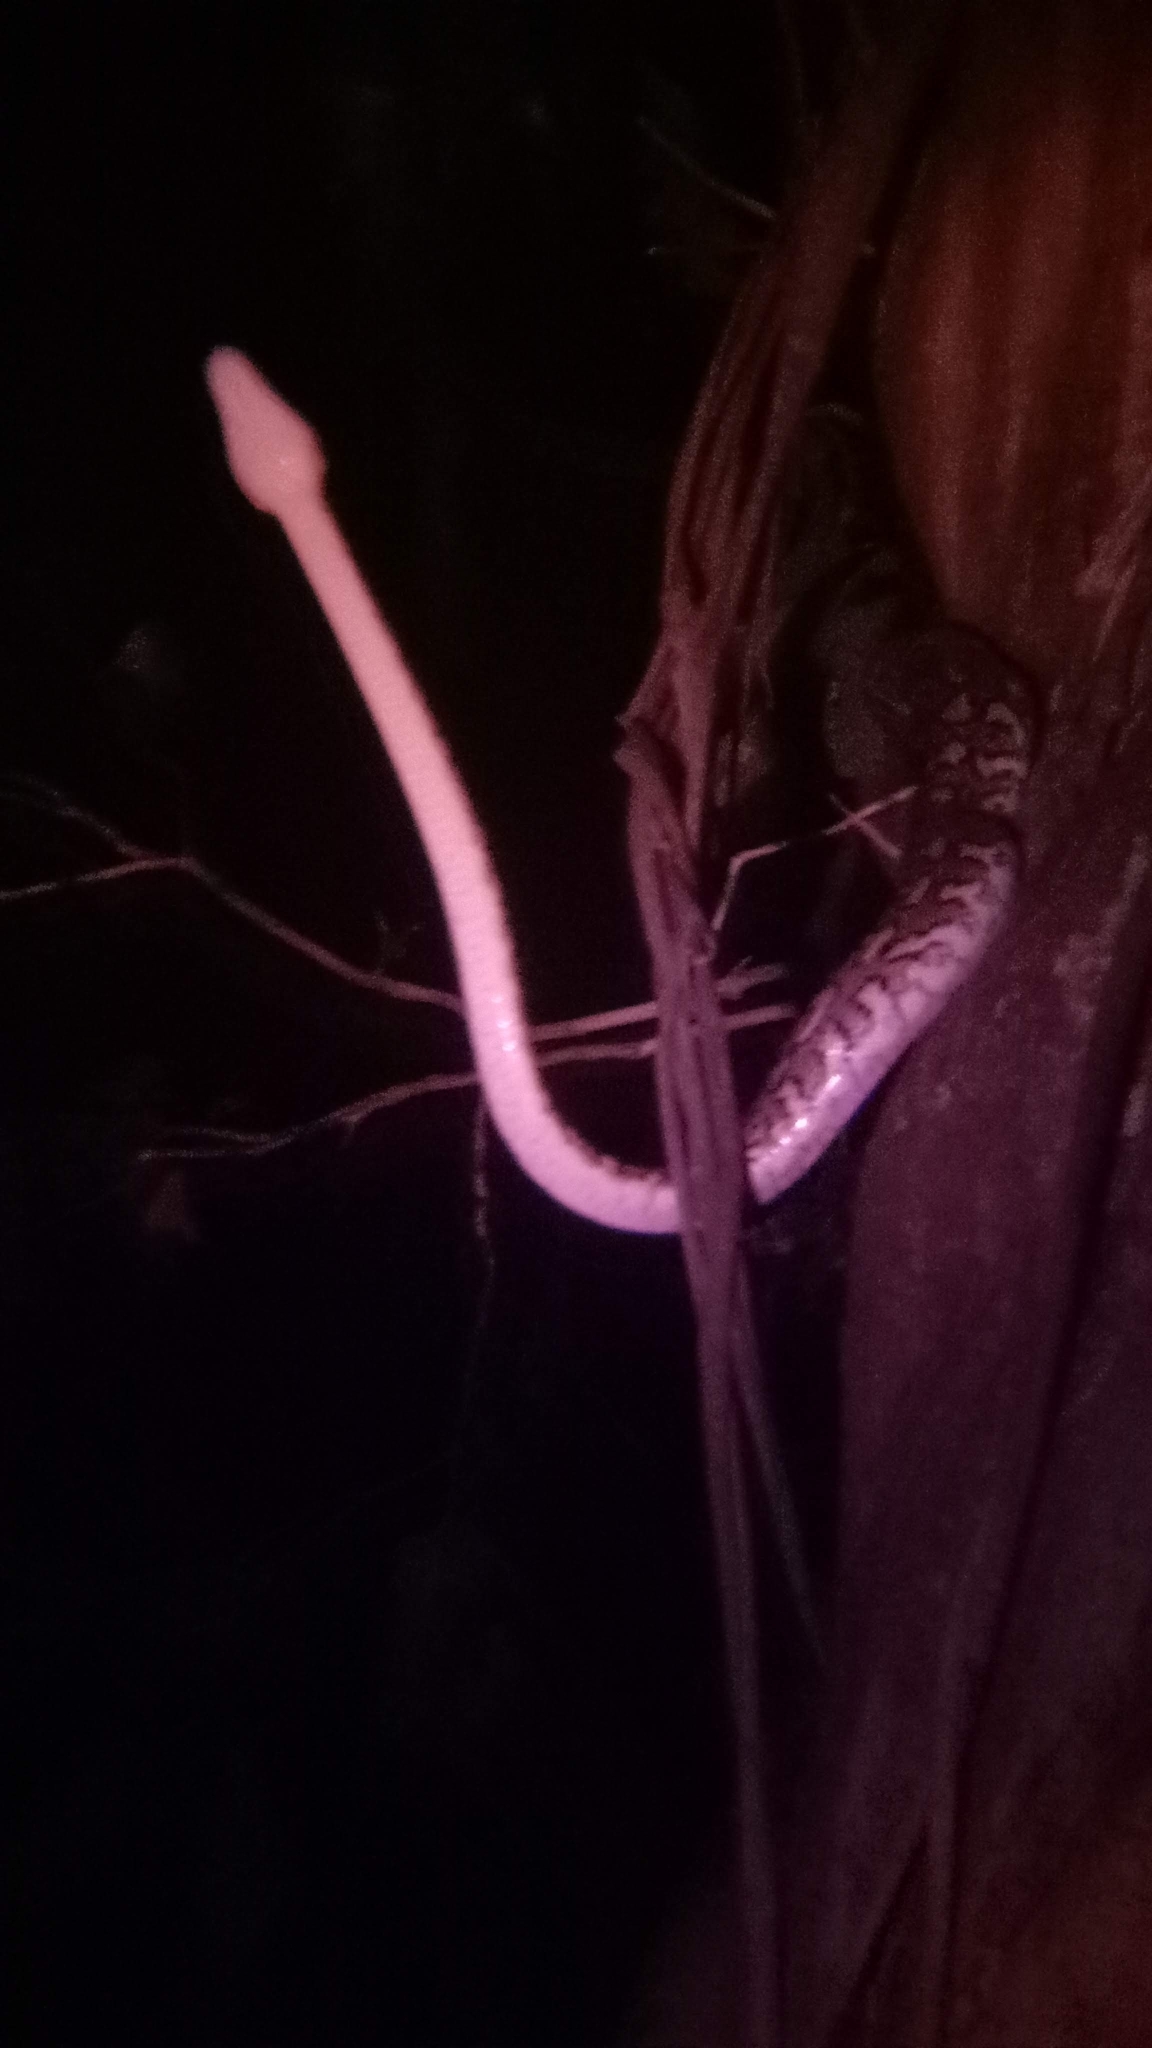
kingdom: Animalia
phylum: Chordata
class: Squamata
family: Pythonidae
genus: Morelia
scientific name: Morelia spilota
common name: Carpet python
